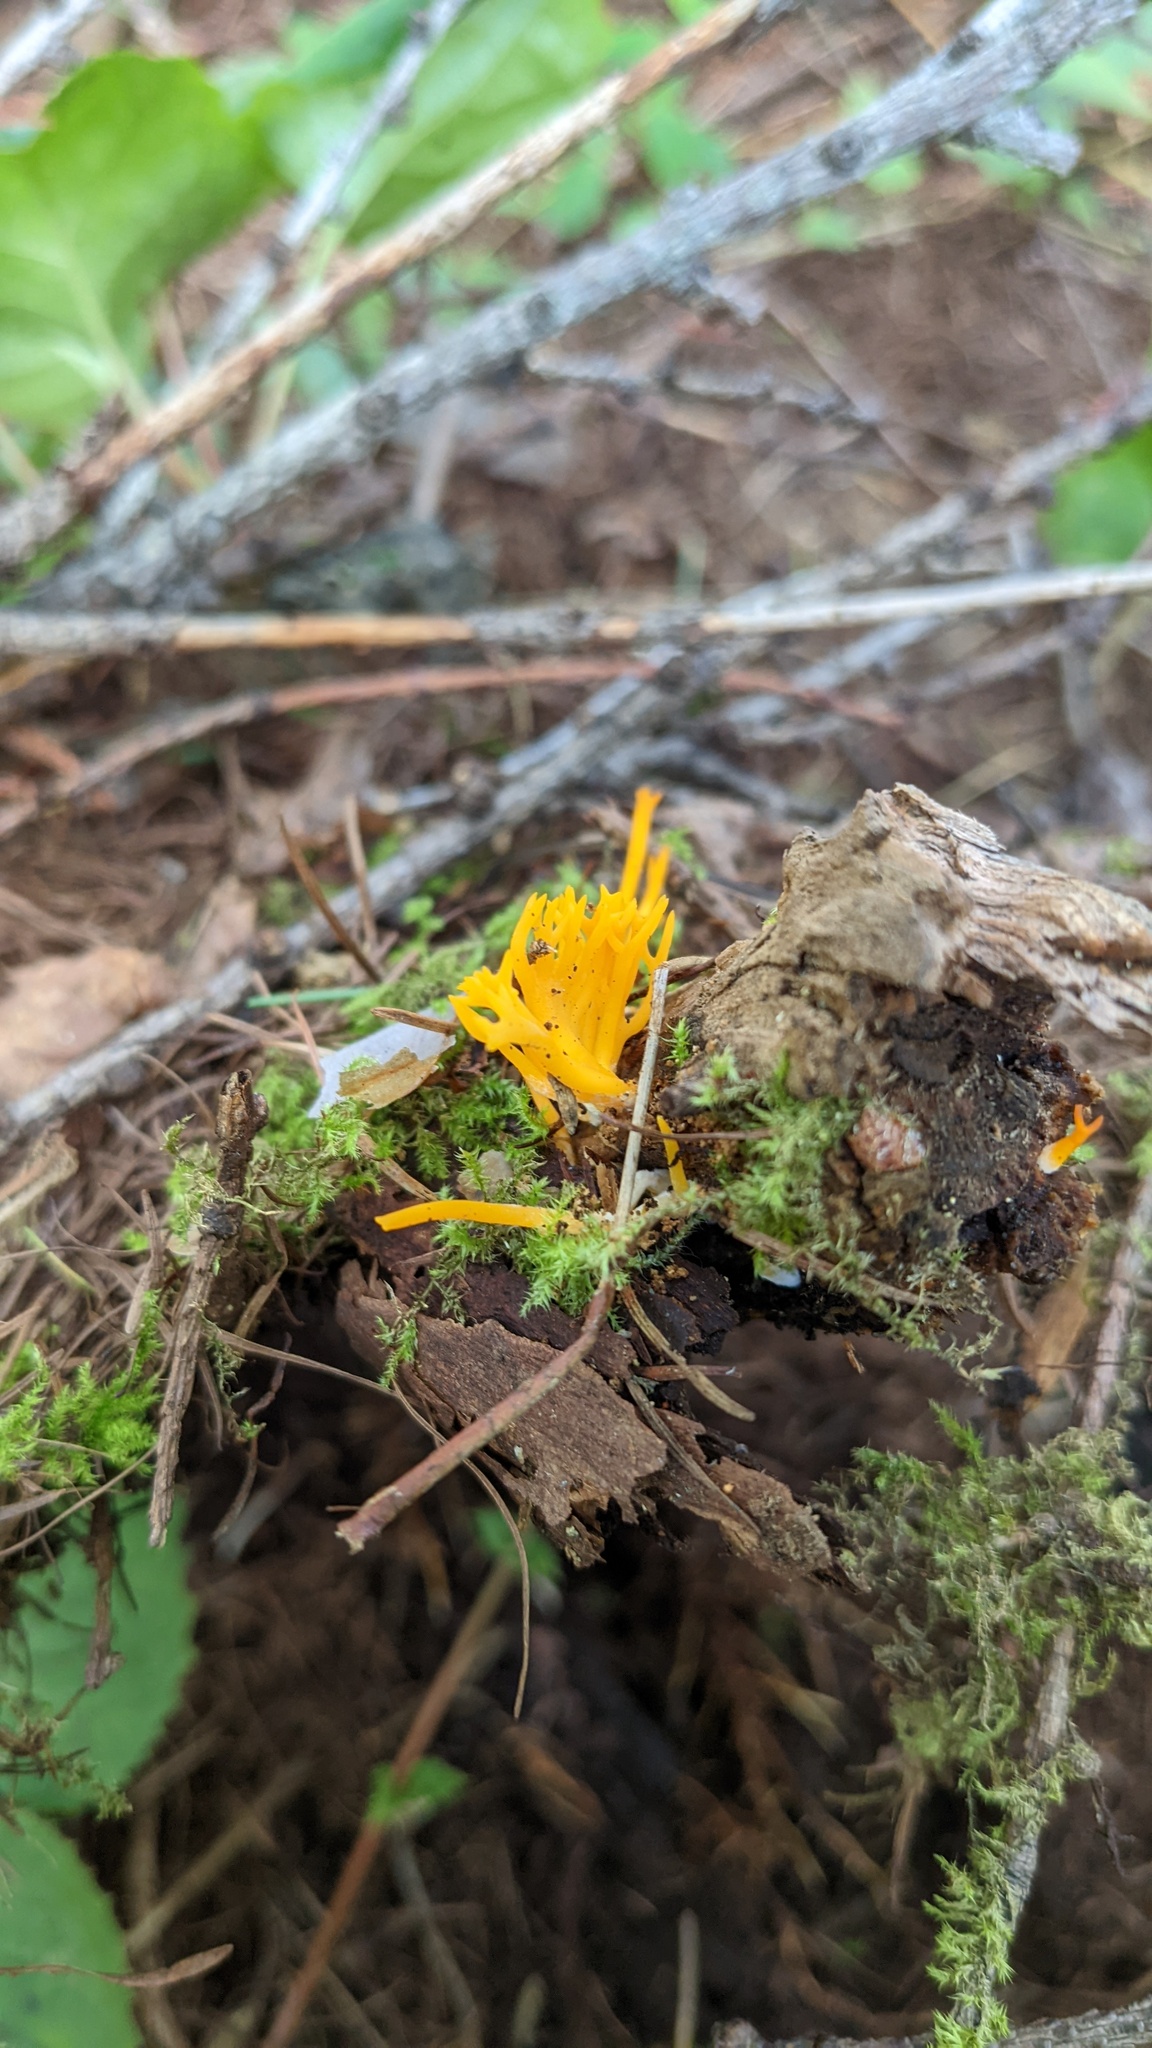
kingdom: Fungi
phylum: Basidiomycota
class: Dacrymycetes
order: Dacrymycetales
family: Dacrymycetaceae
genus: Calocera
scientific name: Calocera viscosa
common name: Yellow stagshorn
